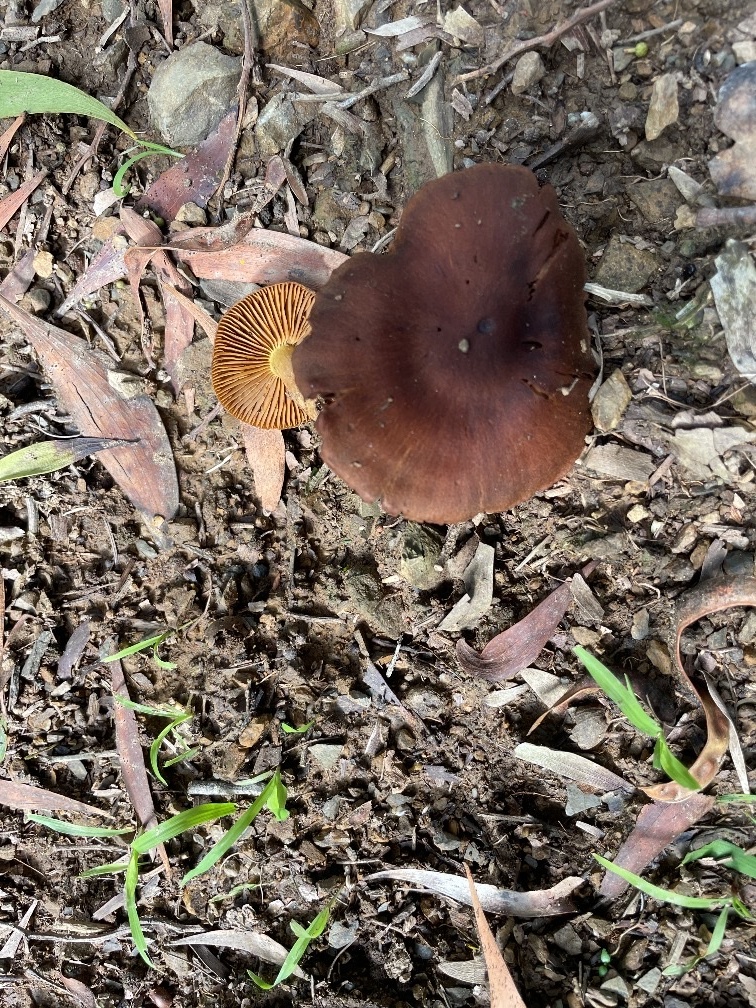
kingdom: Fungi
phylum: Basidiomycota
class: Agaricomycetes
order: Agaricales
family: Cortinariaceae
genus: Cortinarius
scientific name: Cortinarius croceus
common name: Saffron webcap
